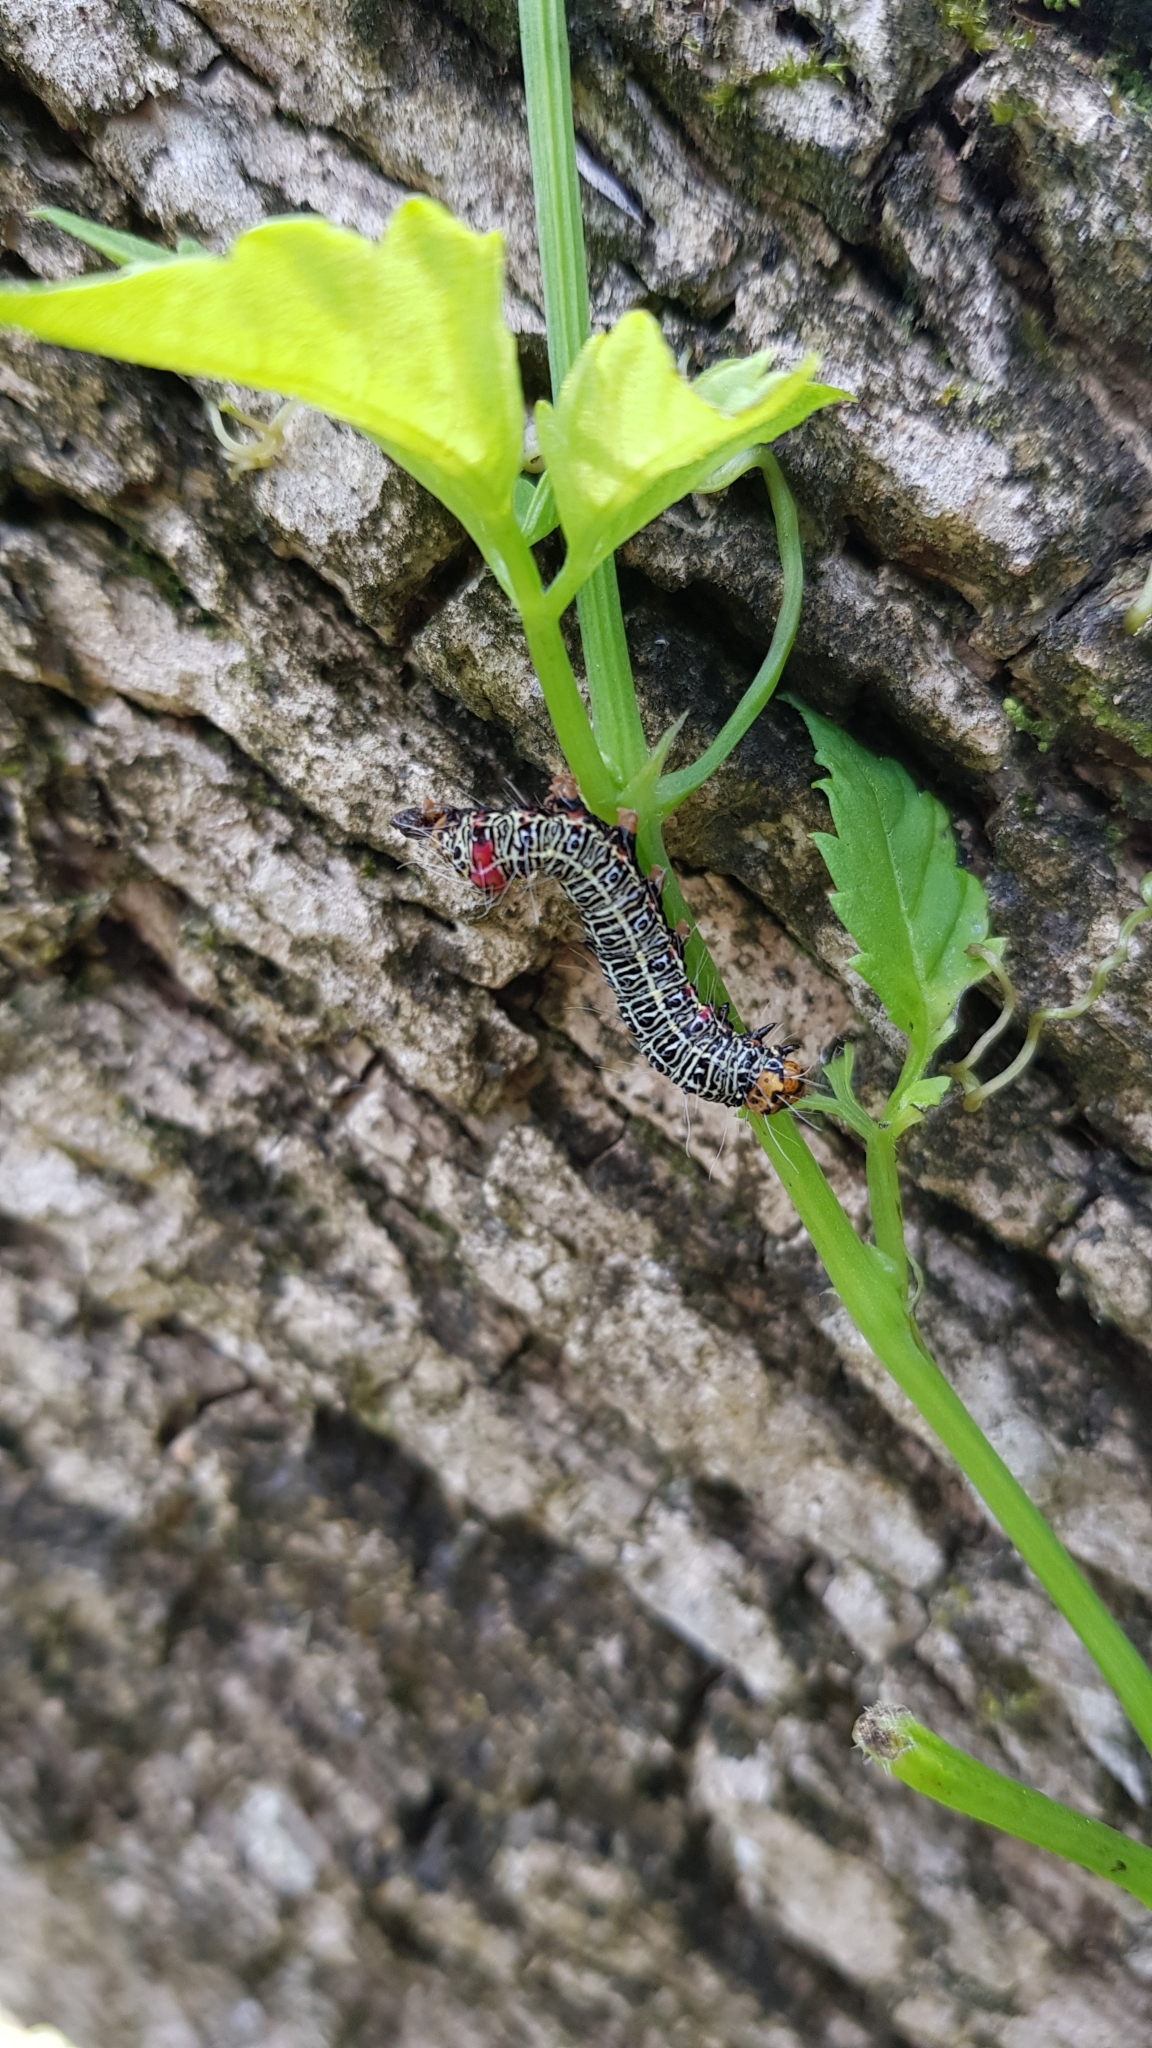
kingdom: Animalia
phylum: Arthropoda
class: Insecta
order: Lepidoptera
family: Noctuidae
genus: Phalaenoides
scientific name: Phalaenoides glycinae
